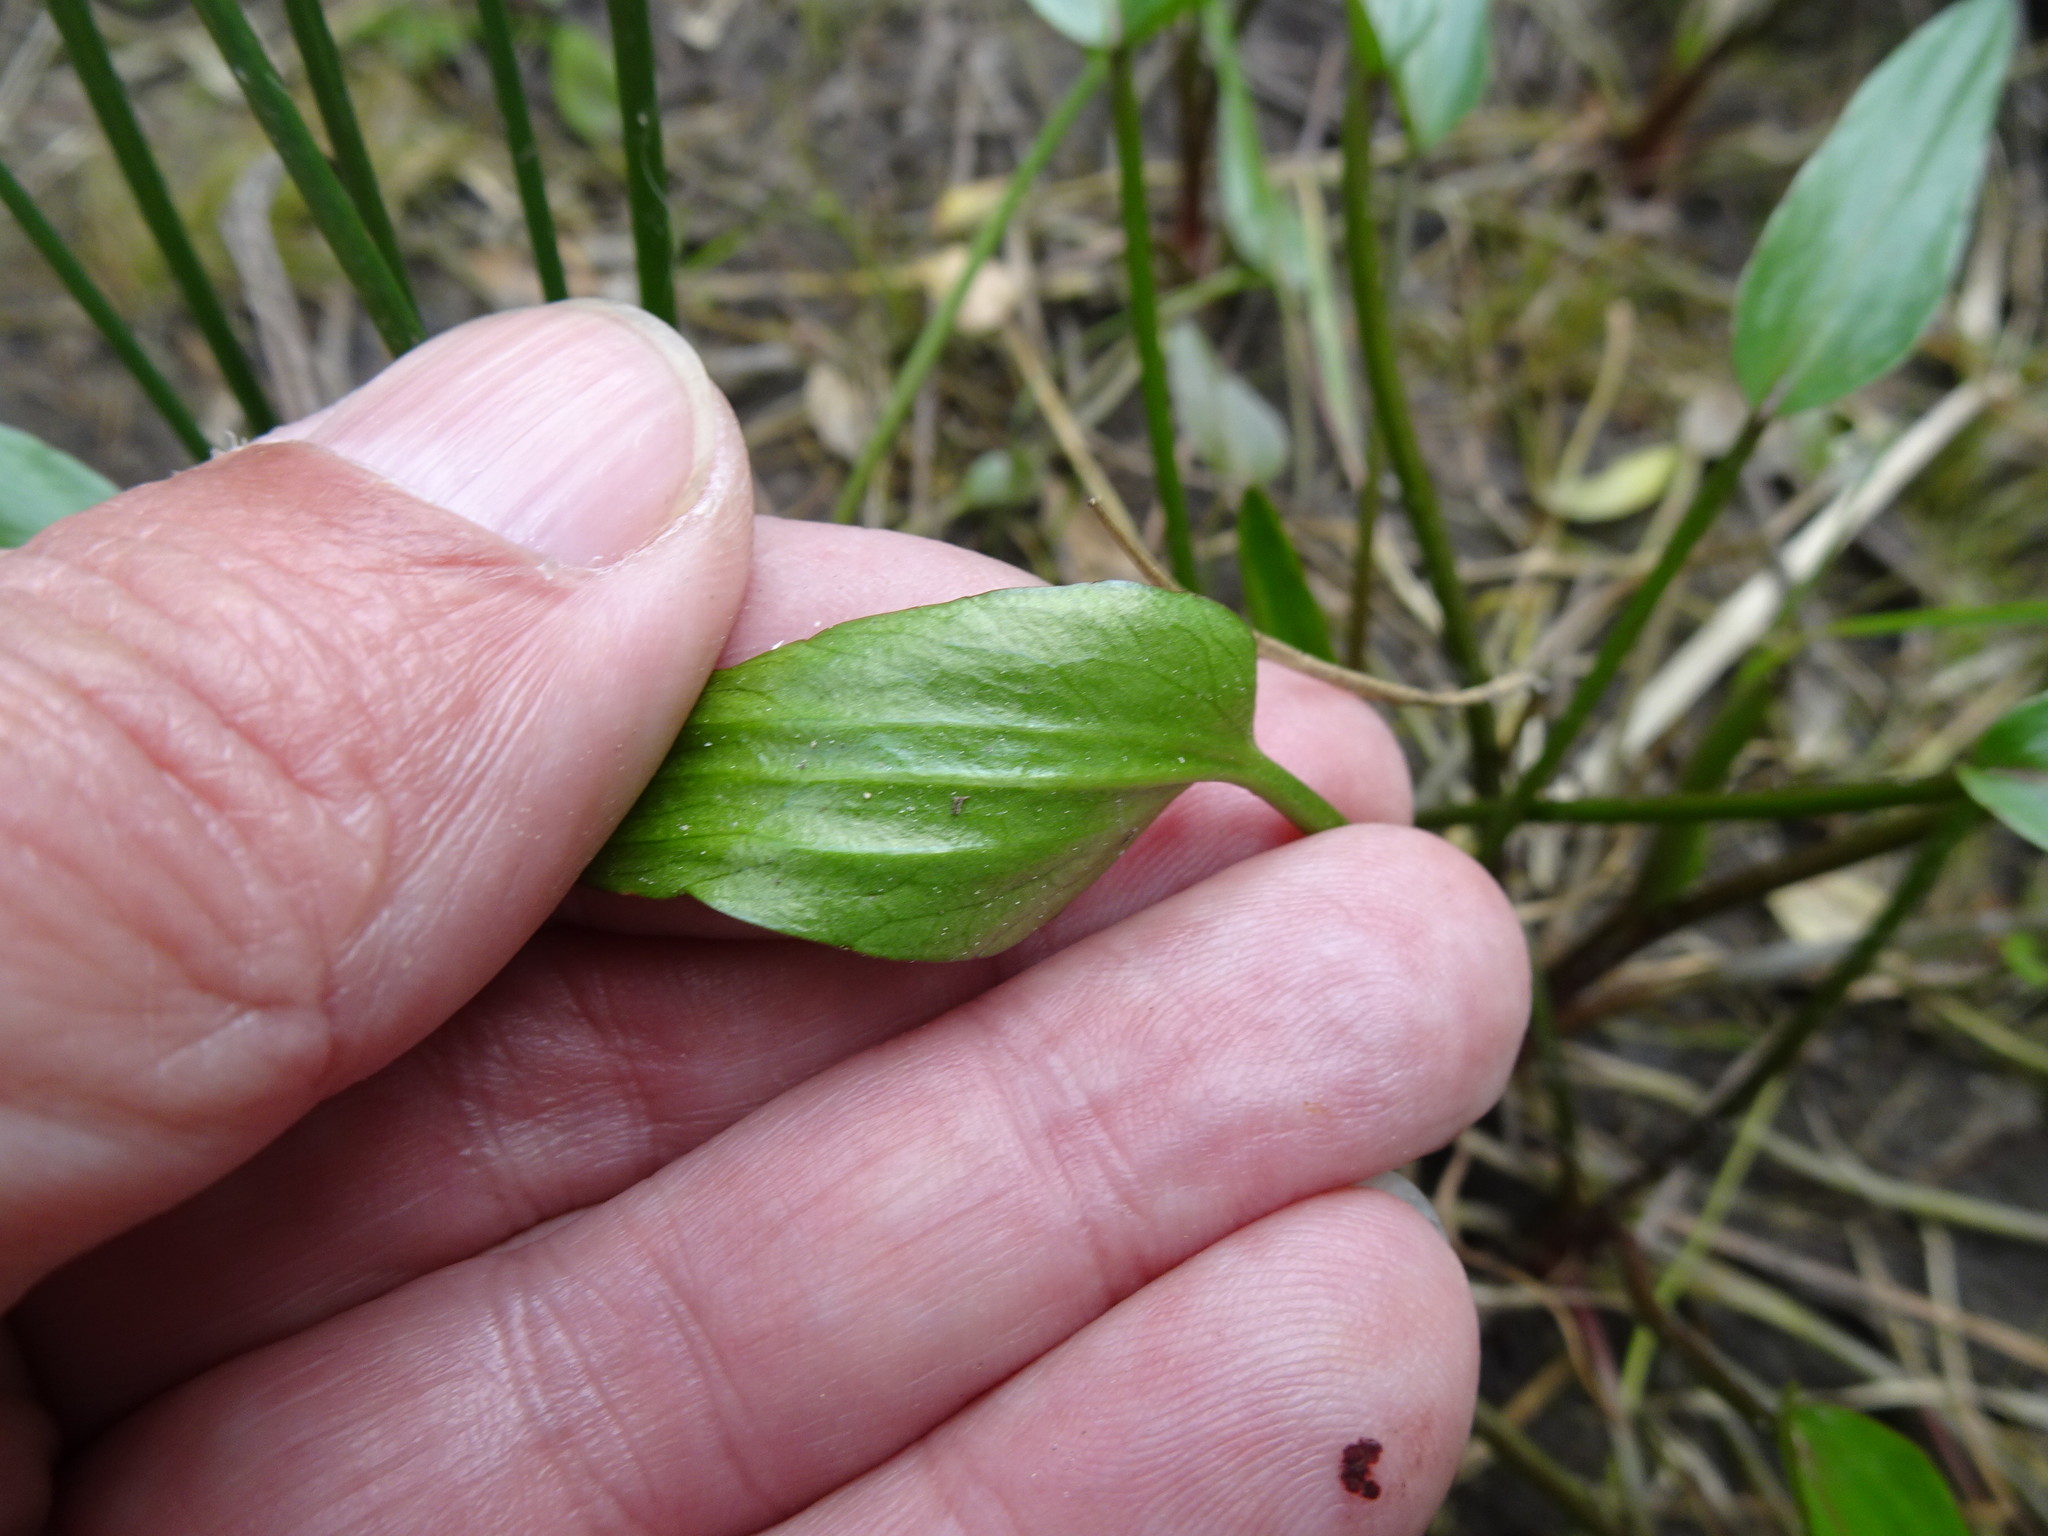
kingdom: Plantae
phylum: Tracheophyta
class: Magnoliopsida
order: Ranunculales
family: Ranunculaceae
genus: Ranunculus
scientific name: Ranunculus flammula
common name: Lesser spearwort
